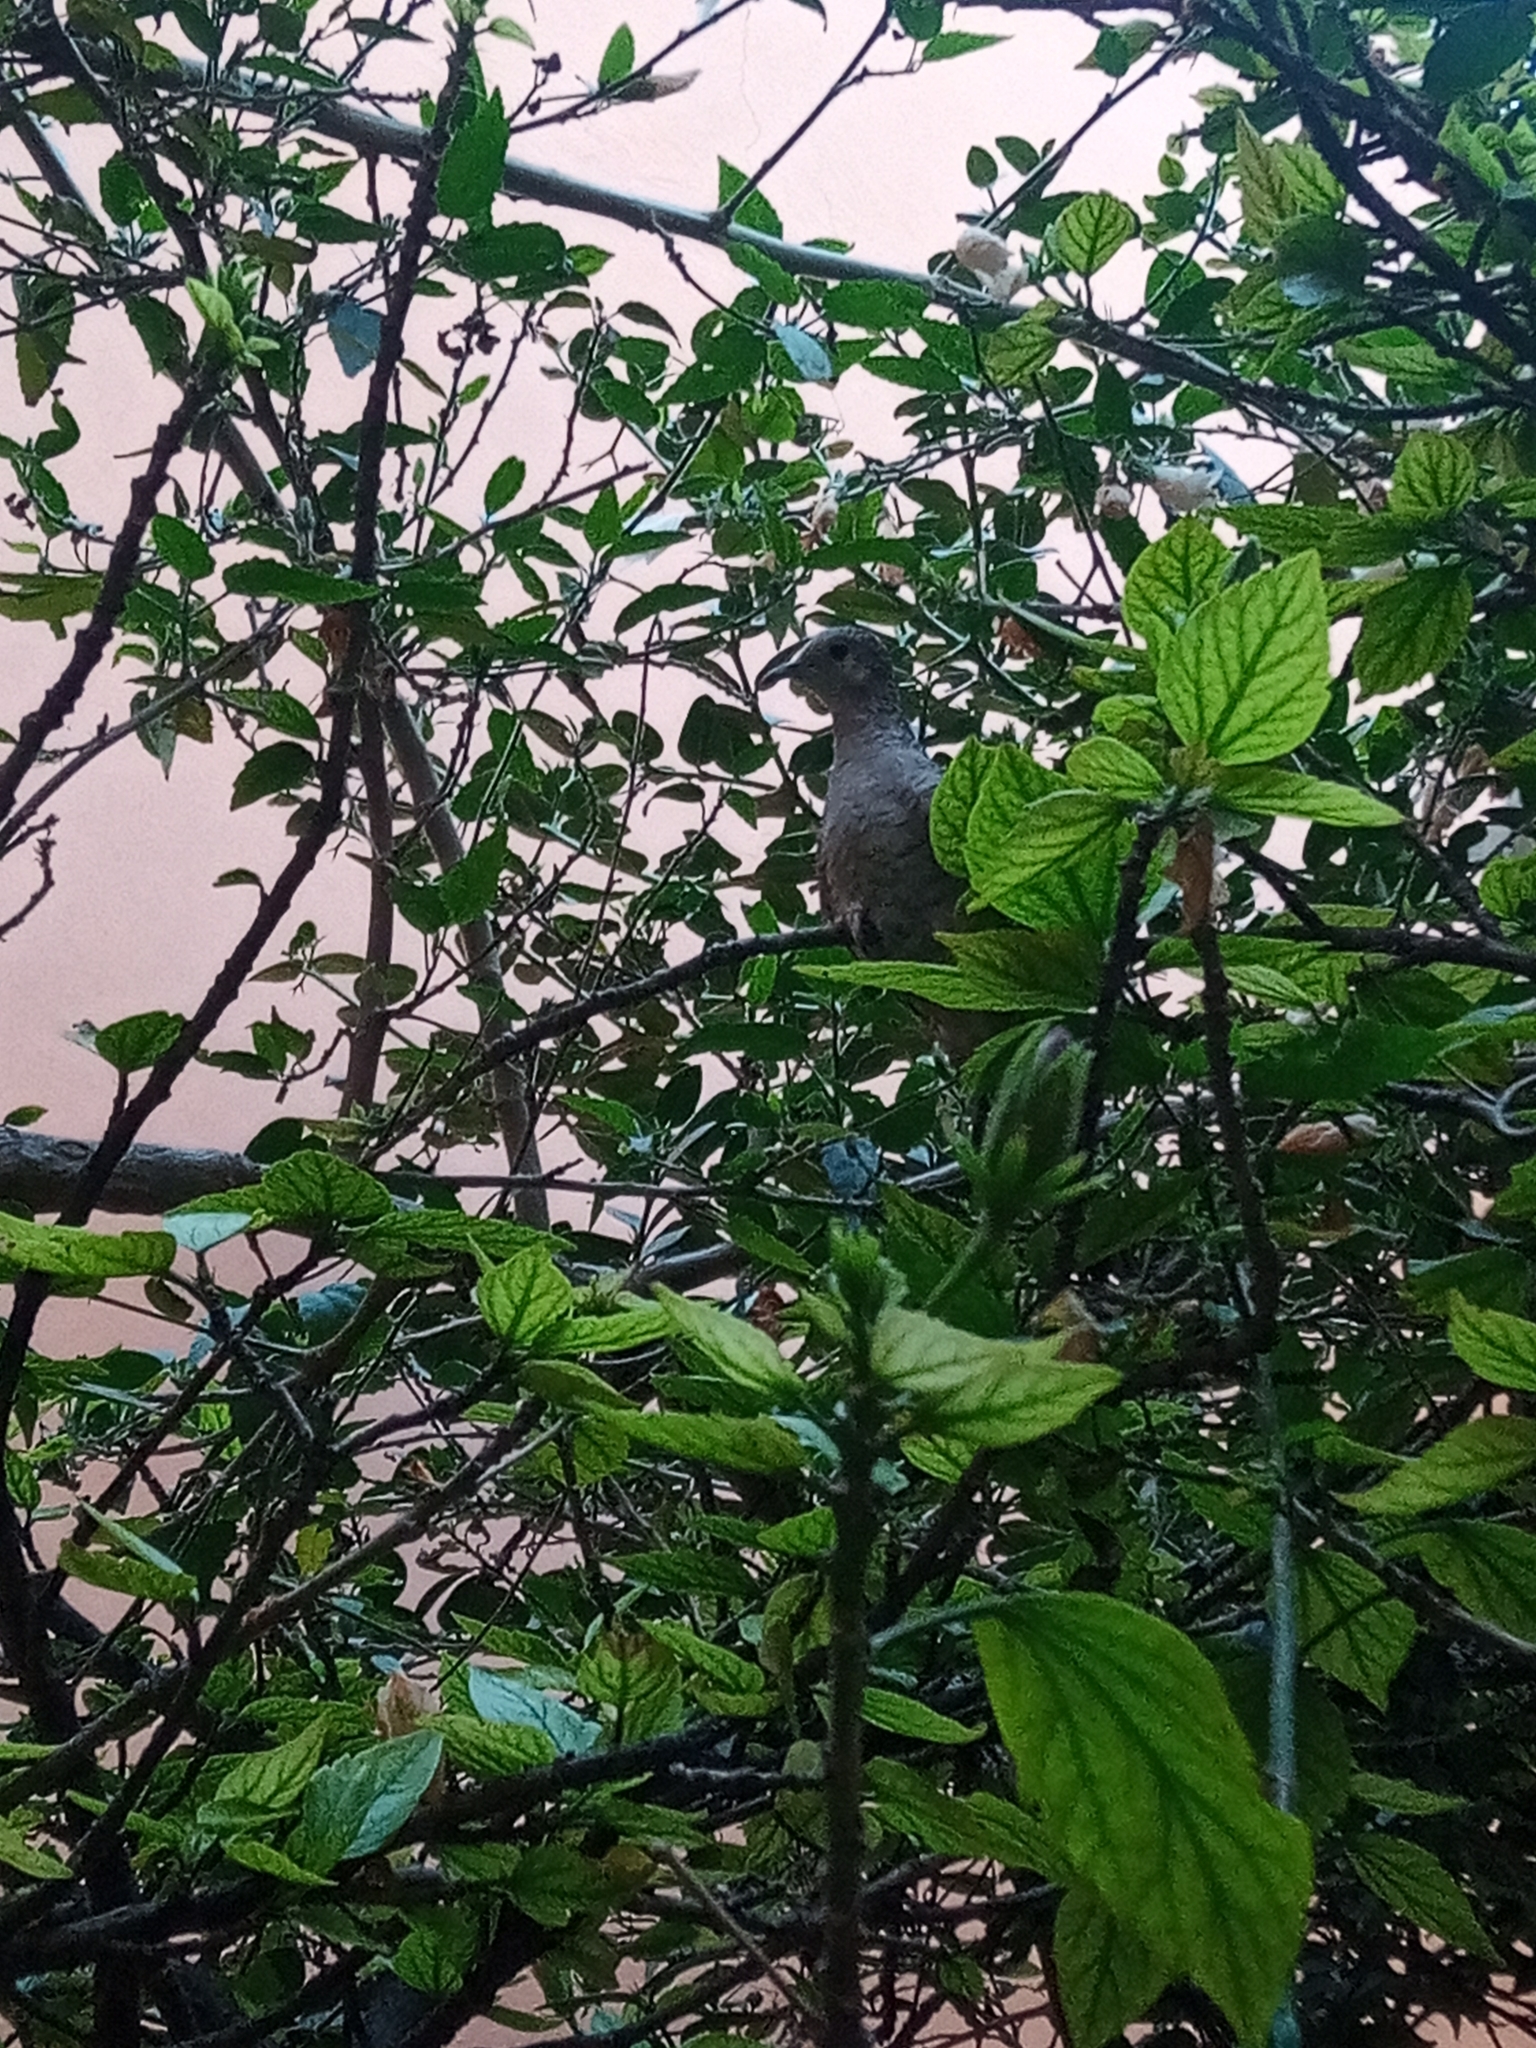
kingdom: Animalia
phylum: Chordata
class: Aves
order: Columbiformes
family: Columbidae
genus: Columbina
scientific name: Columbina inca
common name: Inca dove
